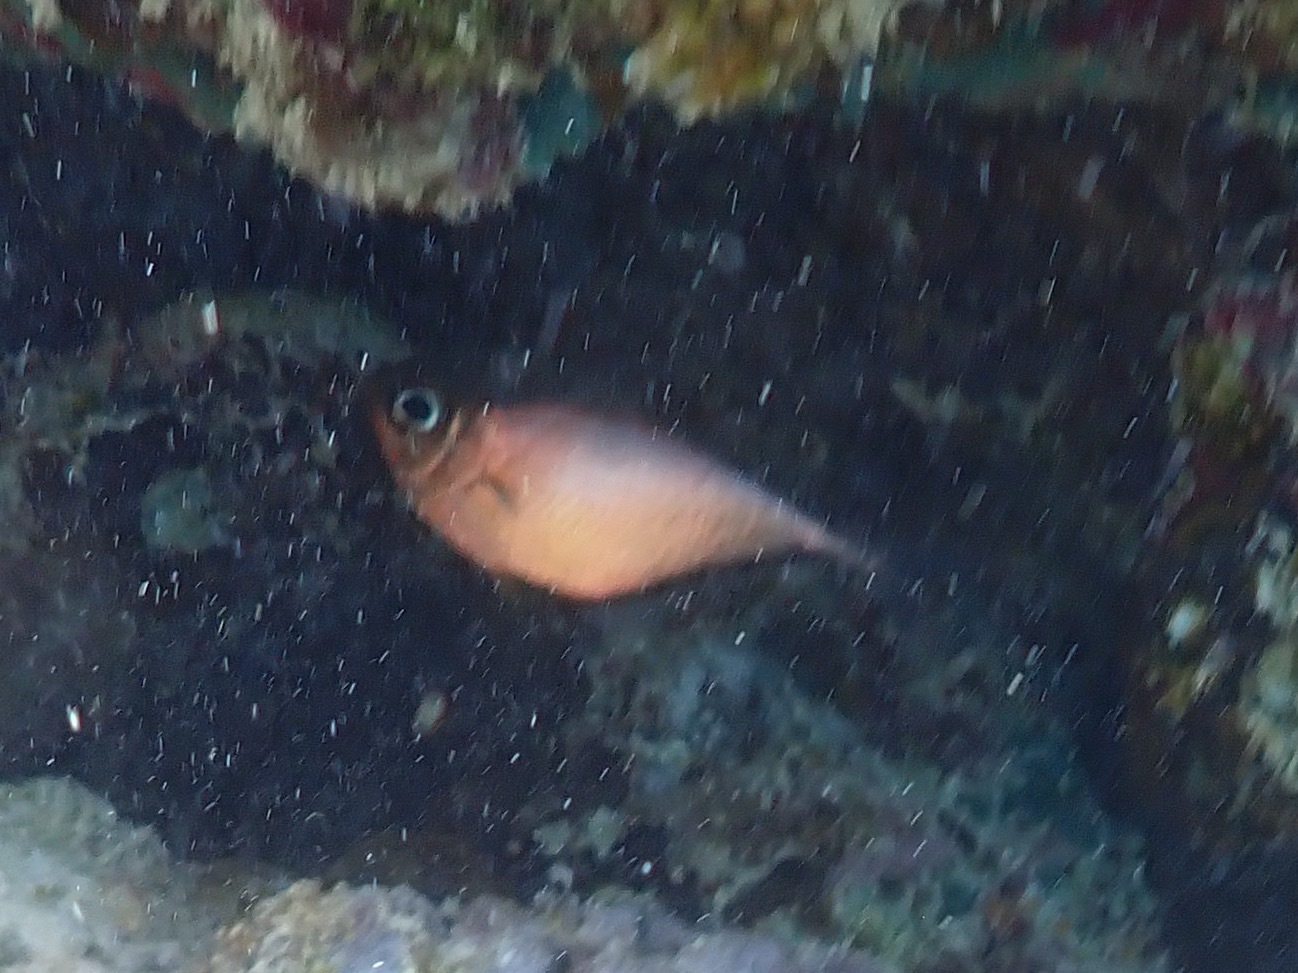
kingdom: Animalia
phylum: Chordata
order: Perciformes
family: Pempheridae
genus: Pempheris
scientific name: Pempheris schomburgkii
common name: Glassy sweeper
